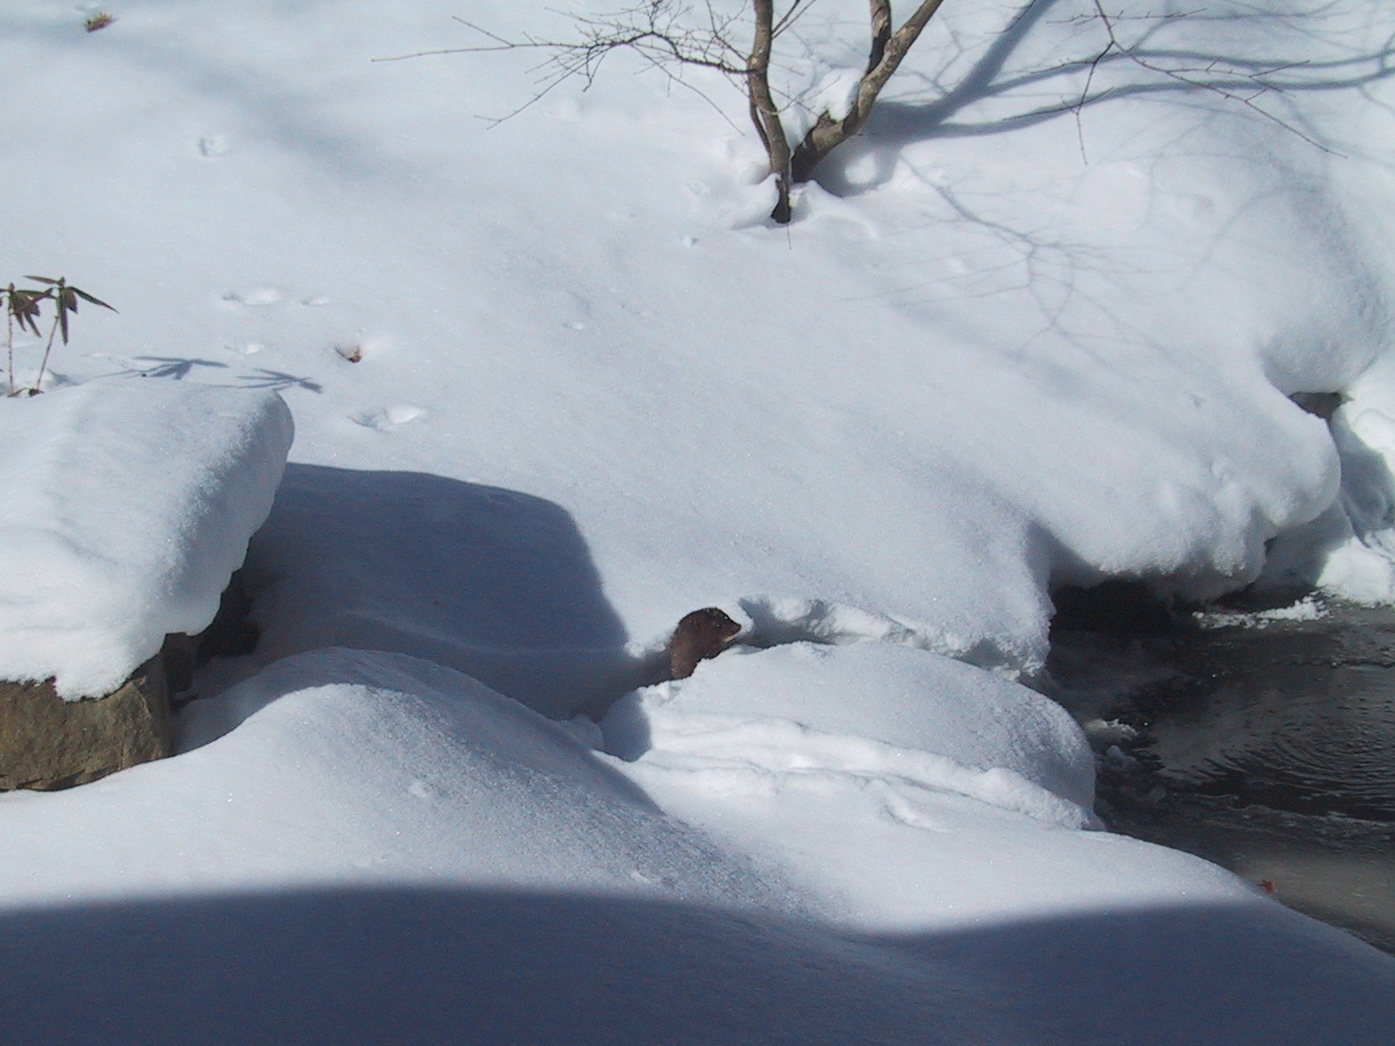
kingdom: Animalia
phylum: Chordata
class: Mammalia
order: Carnivora
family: Mustelidae
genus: Mustela
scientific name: Mustela
